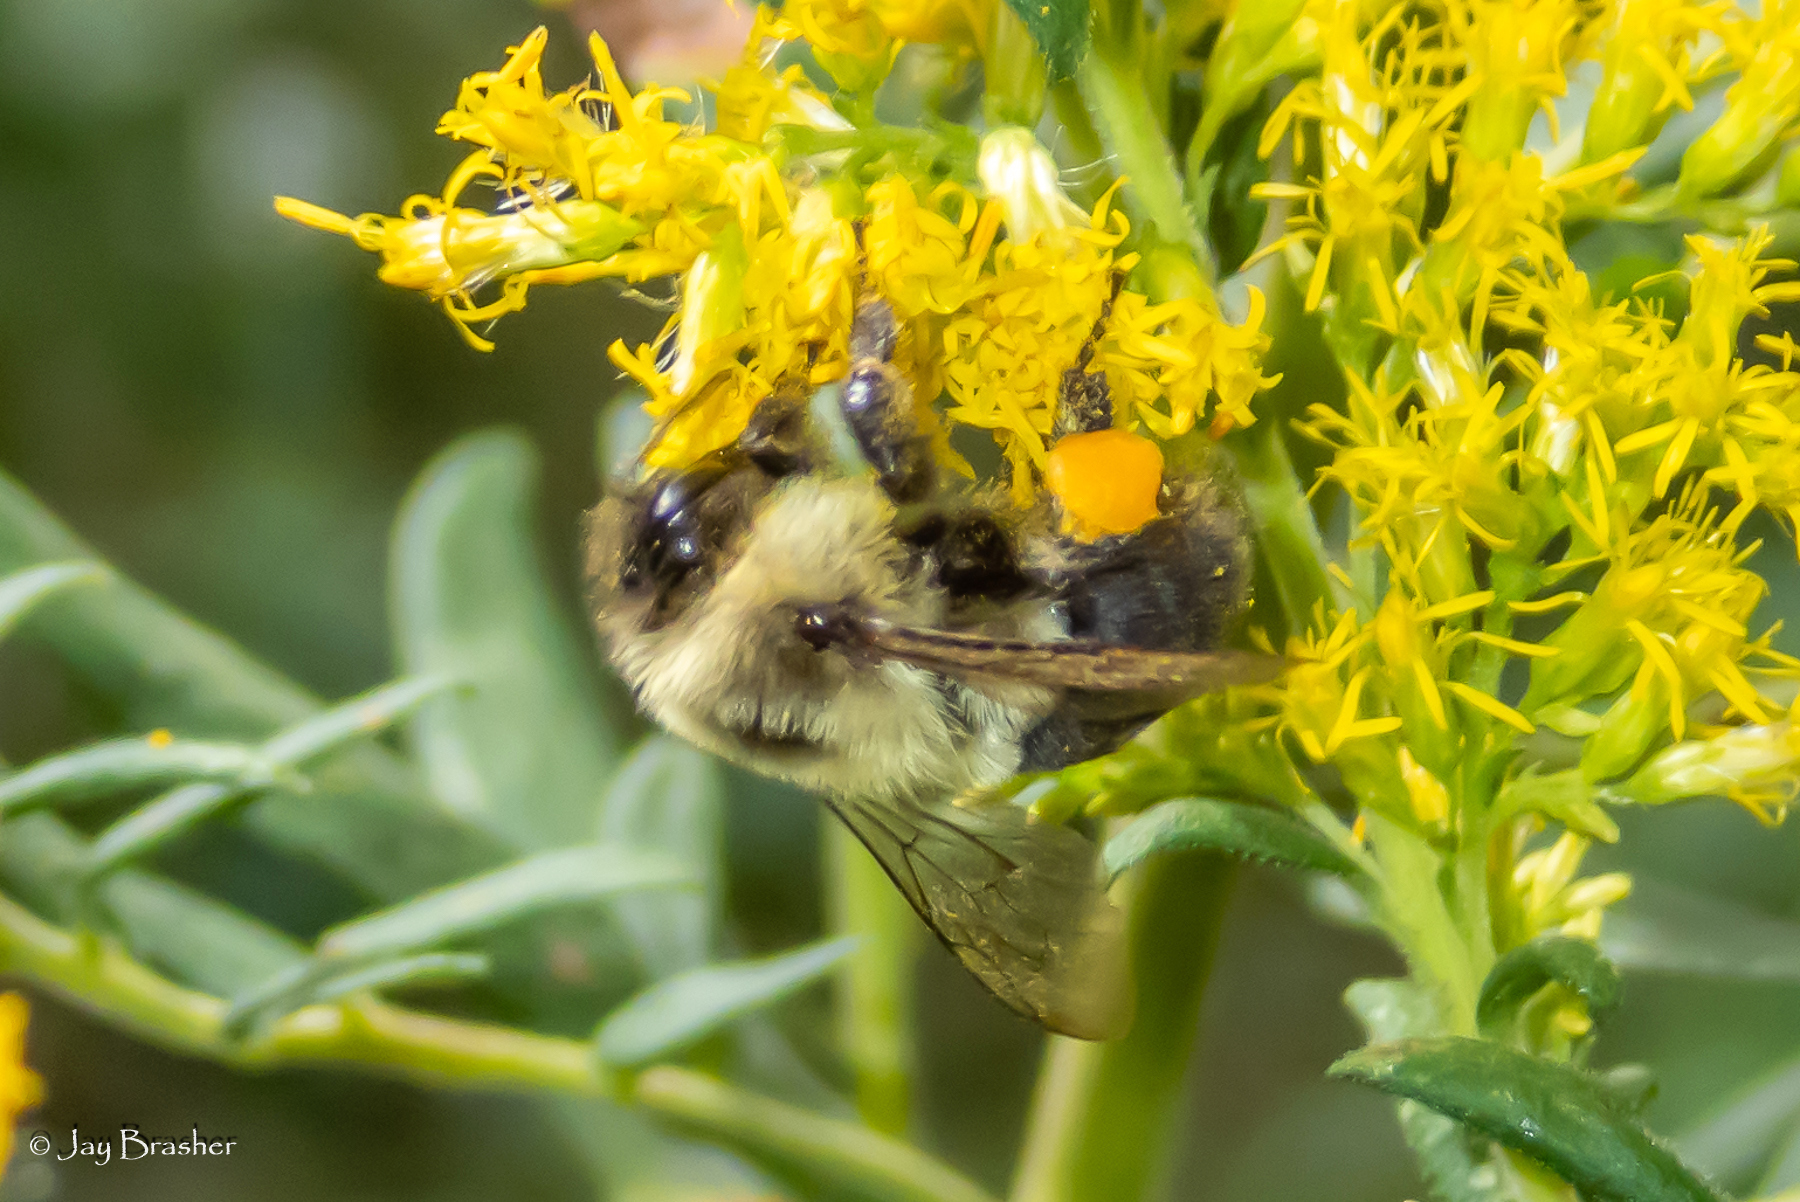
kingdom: Animalia
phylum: Arthropoda
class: Insecta
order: Hymenoptera
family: Apidae
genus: Bombus
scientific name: Bombus impatiens
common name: Common eastern bumble bee
